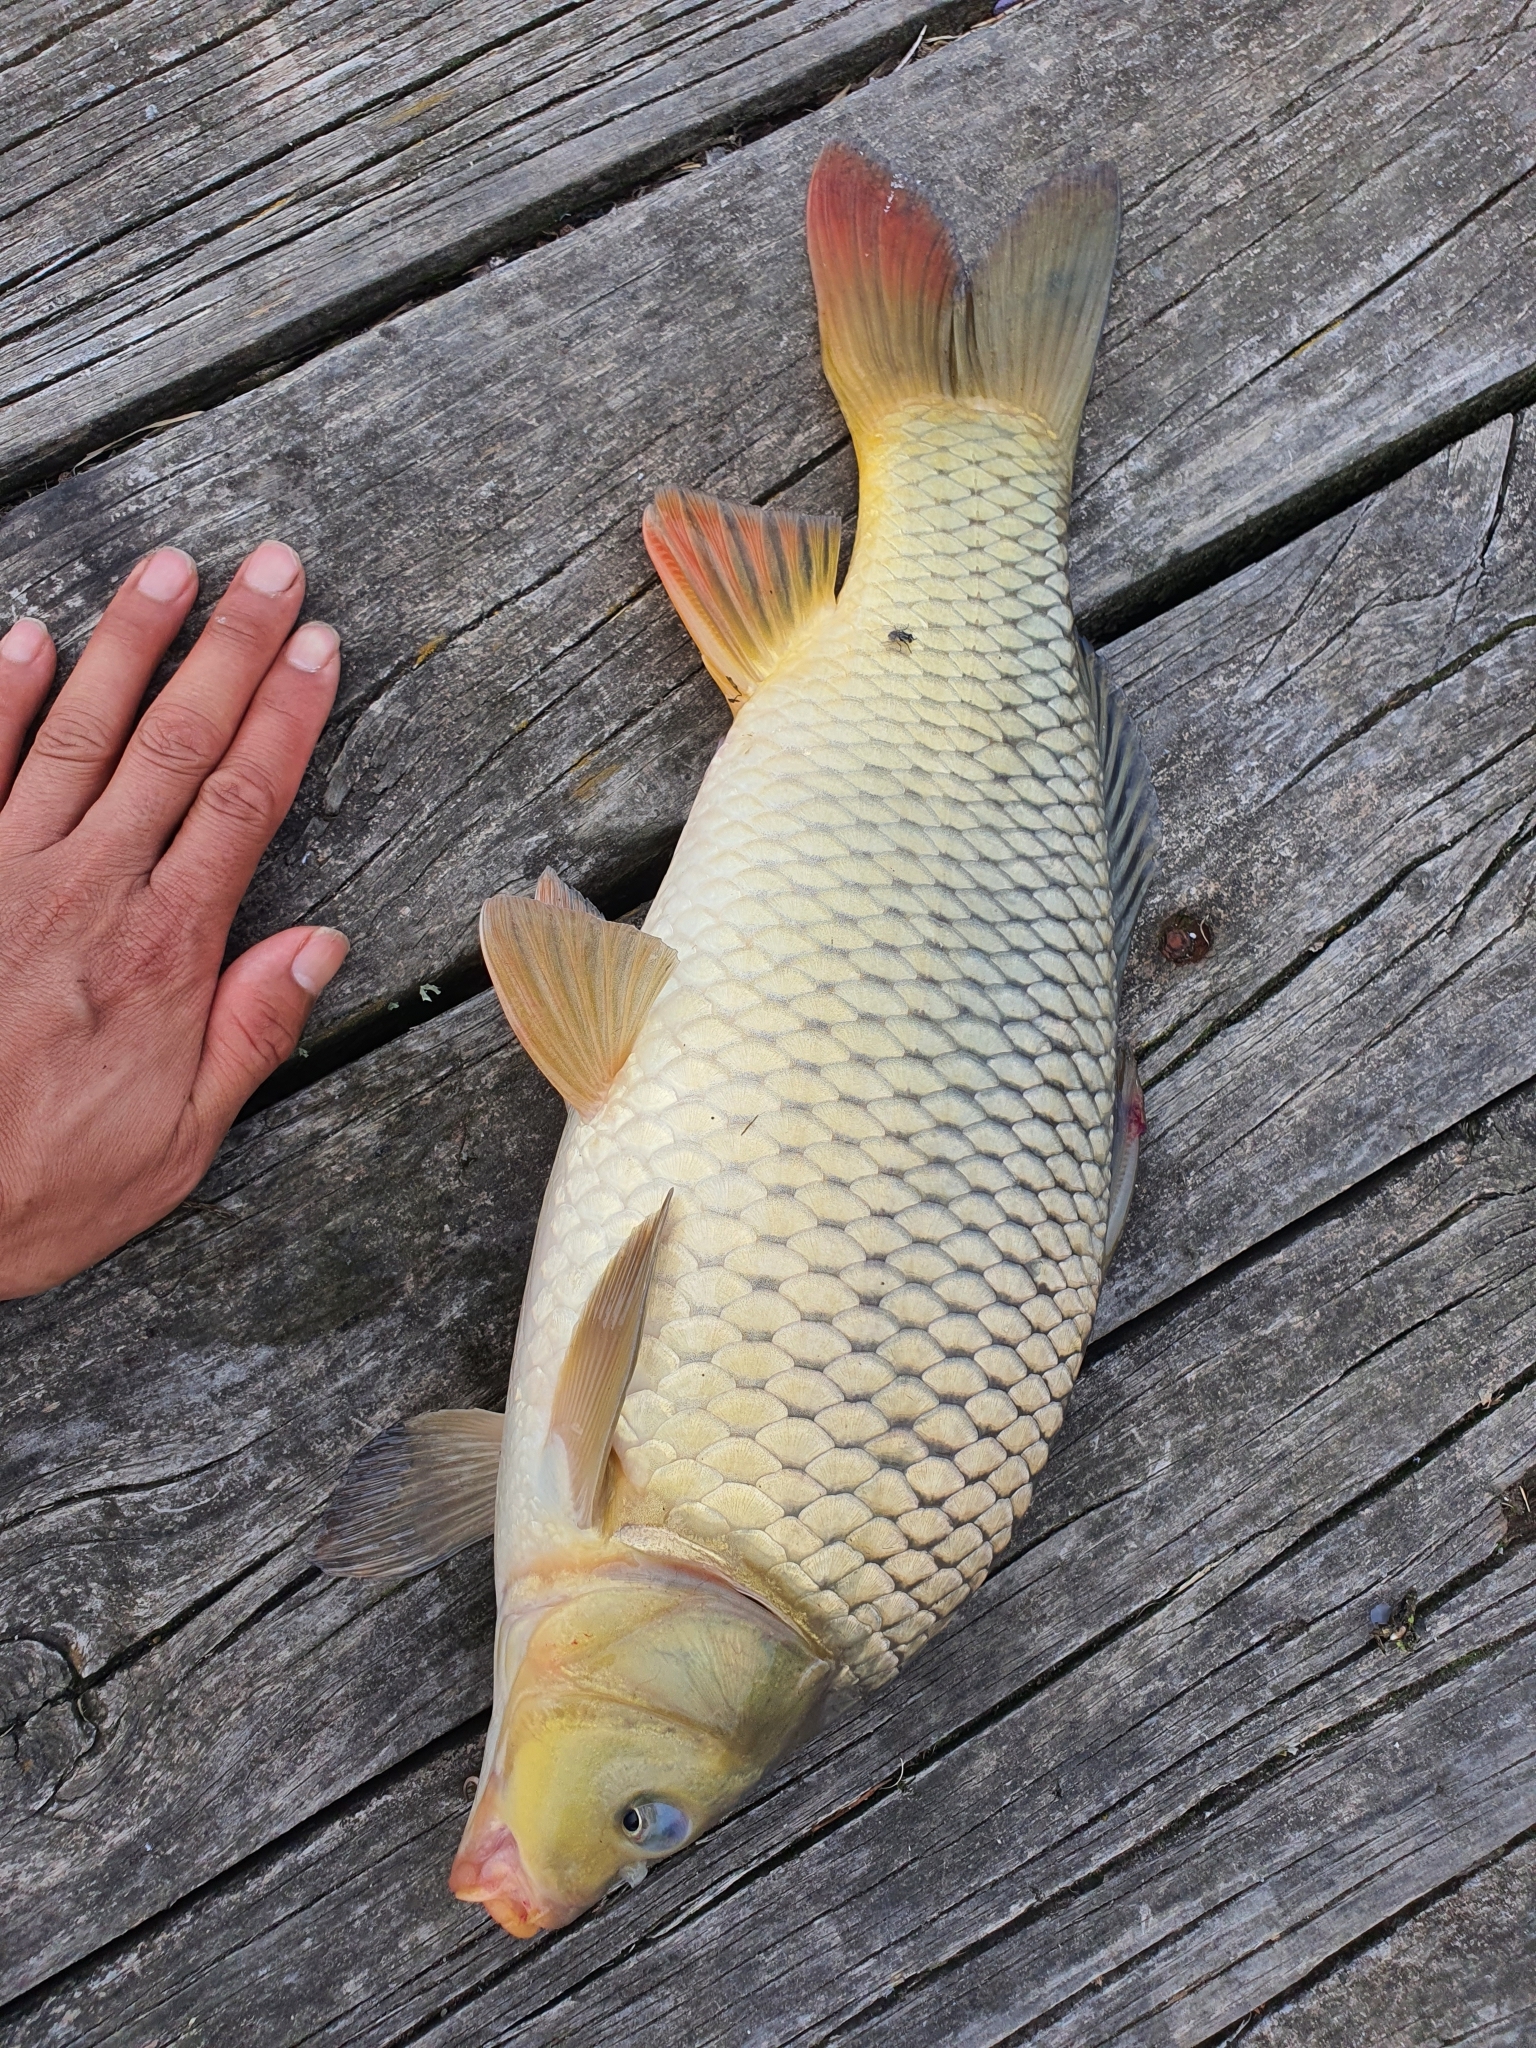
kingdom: Animalia
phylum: Chordata
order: Cypriniformes
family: Cyprinidae
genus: Cyprinus
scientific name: Cyprinus carpio
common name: Common carp
